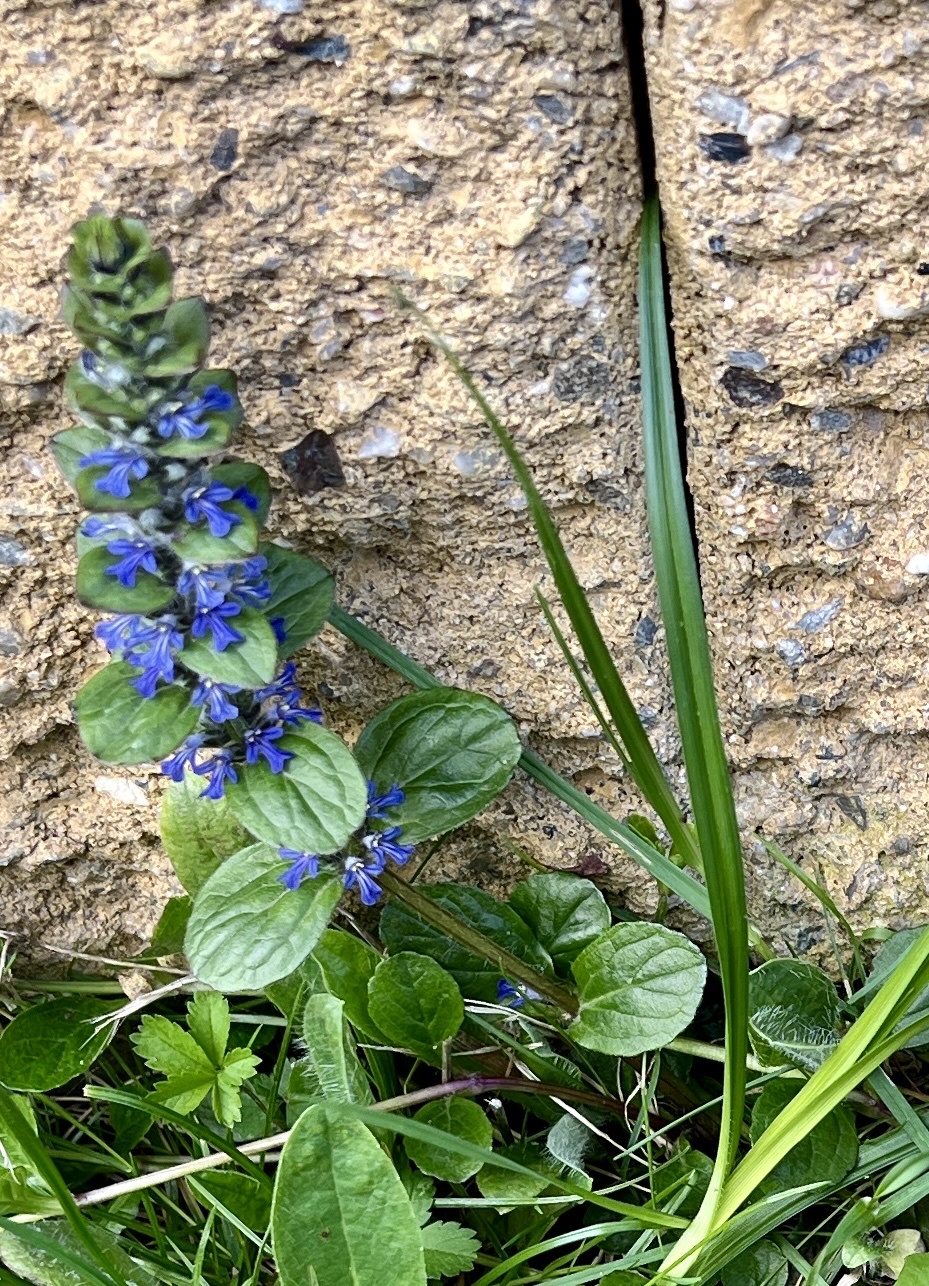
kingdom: Plantae
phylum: Tracheophyta
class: Magnoliopsida
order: Lamiales
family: Lamiaceae
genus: Ajuga
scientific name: Ajuga reptans
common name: Bugle
